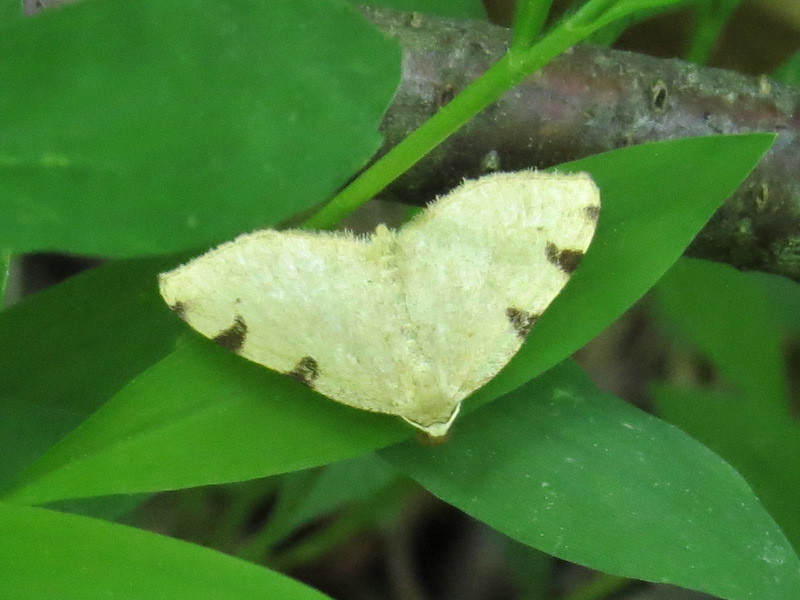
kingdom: Animalia
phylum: Arthropoda
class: Insecta
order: Lepidoptera
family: Geometridae
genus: Heterophleps
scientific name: Heterophleps triguttaria
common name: Three-spotted fillip
